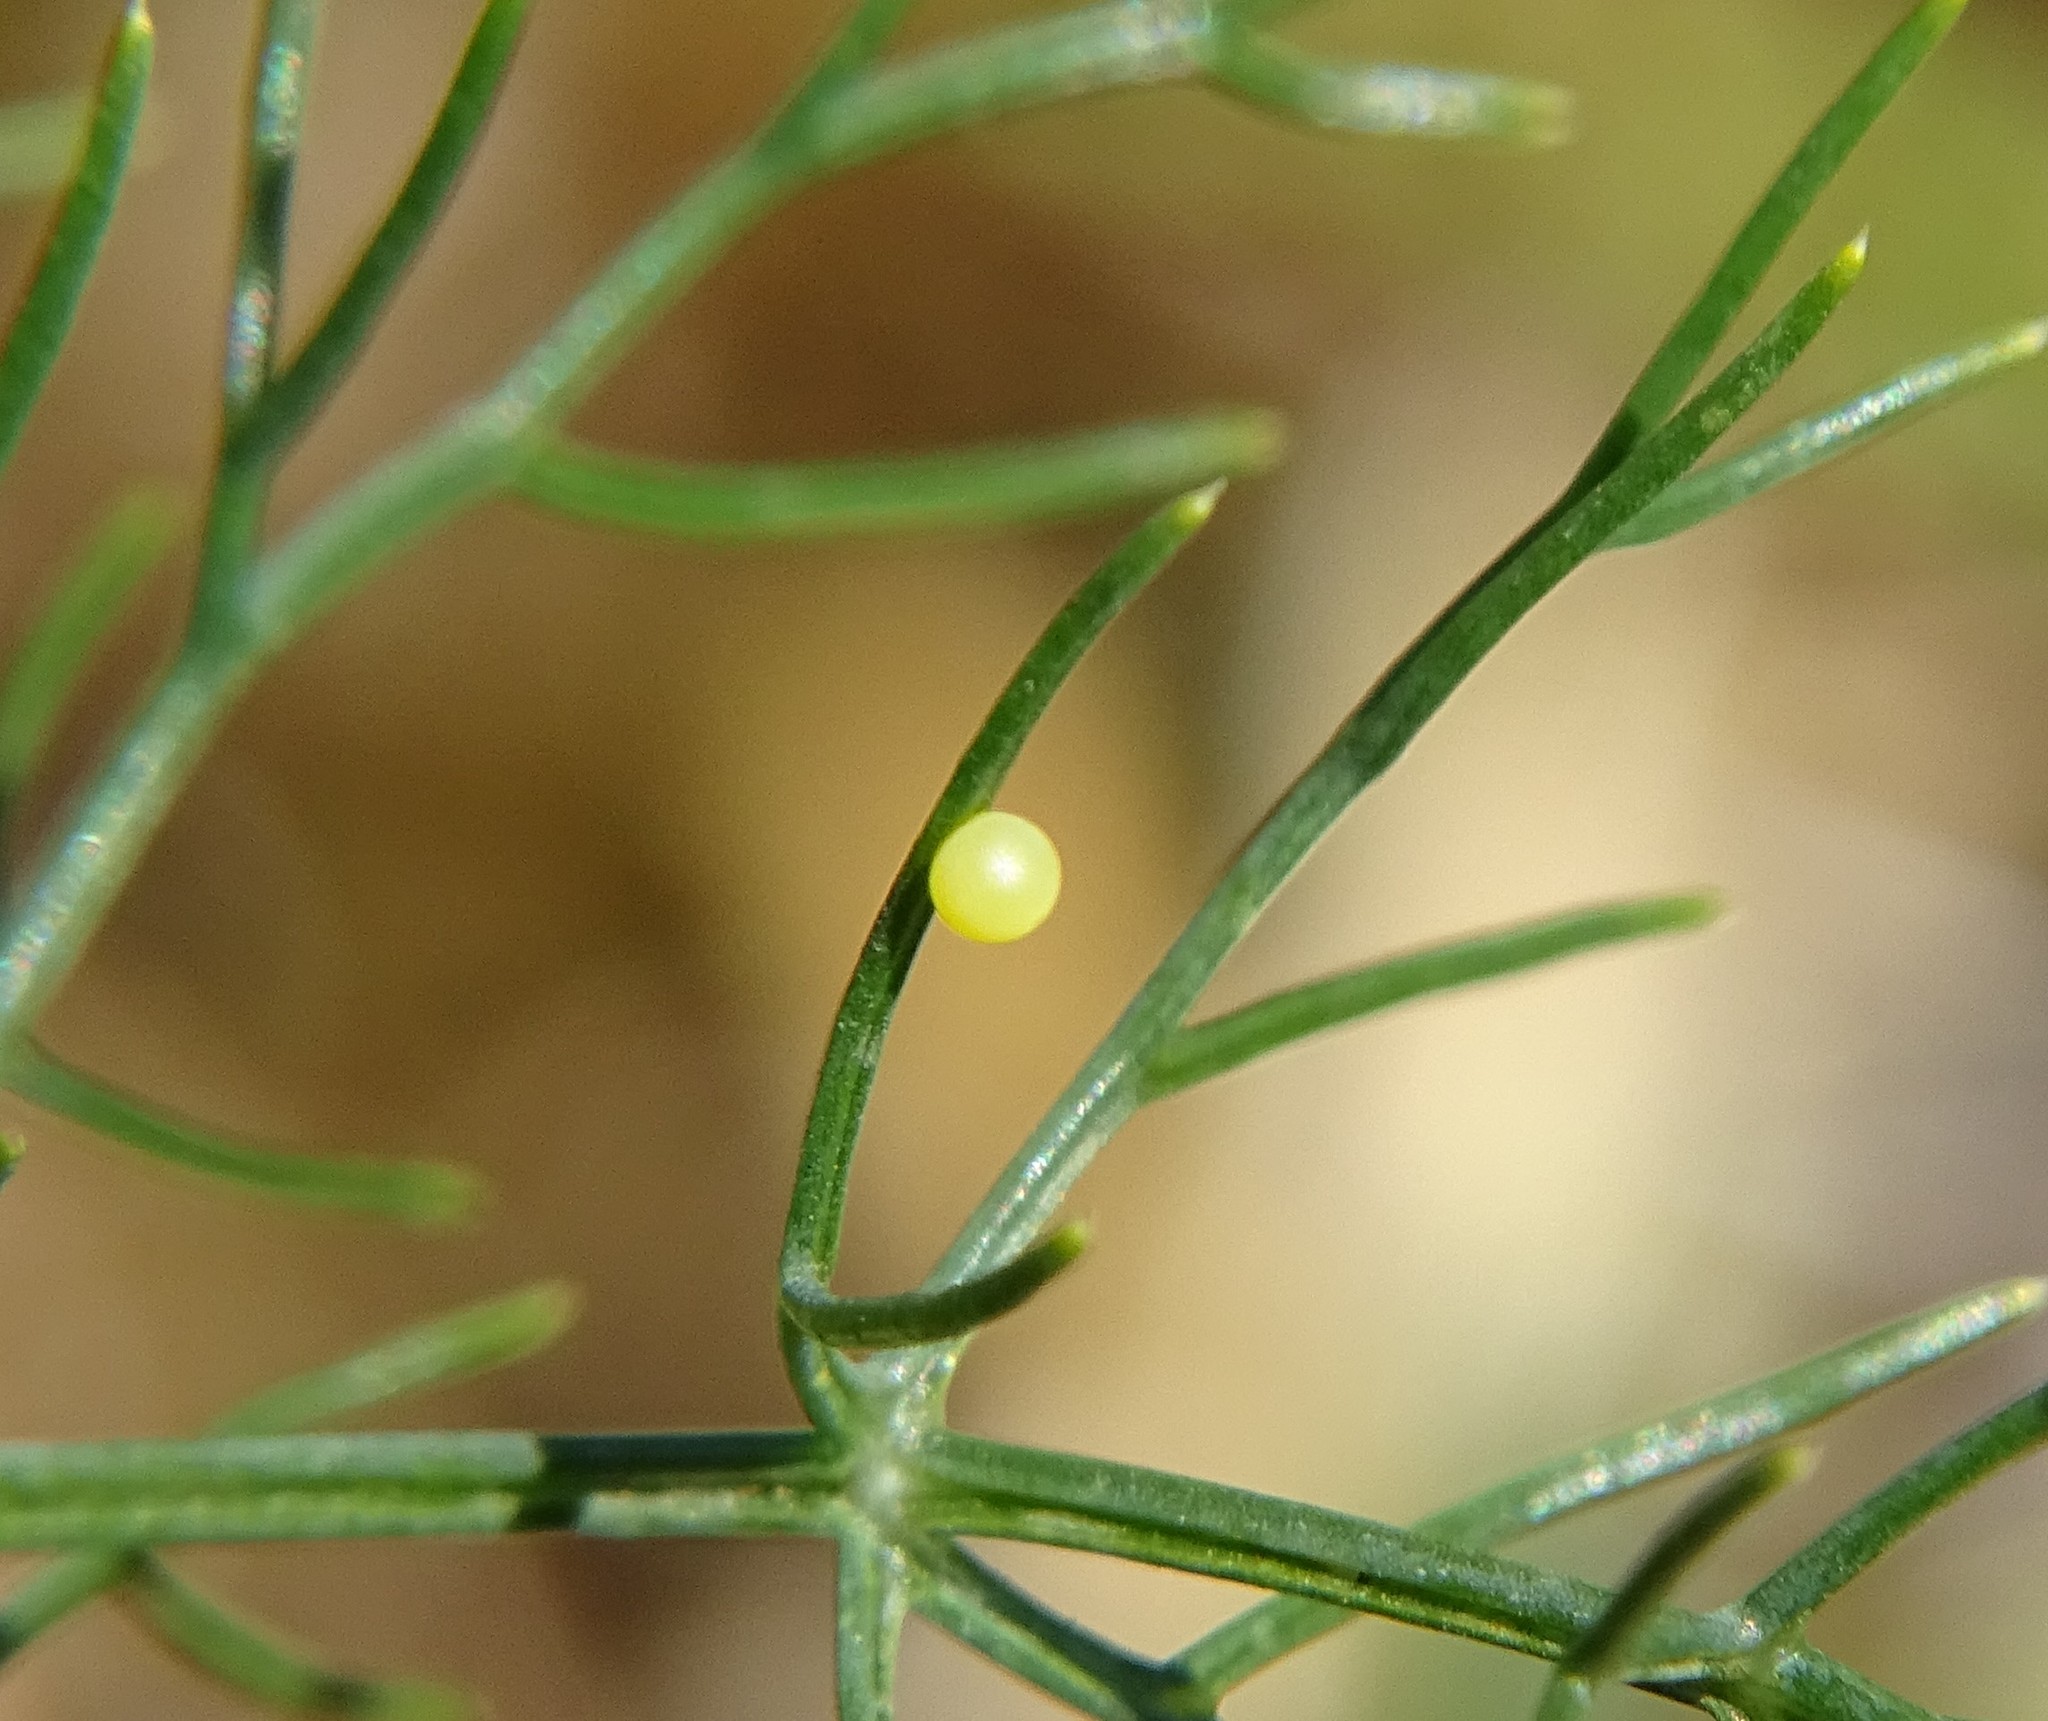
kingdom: Animalia
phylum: Arthropoda
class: Insecta
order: Lepidoptera
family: Papilionidae
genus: Papilio
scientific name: Papilio machaon
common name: Swallowtail
